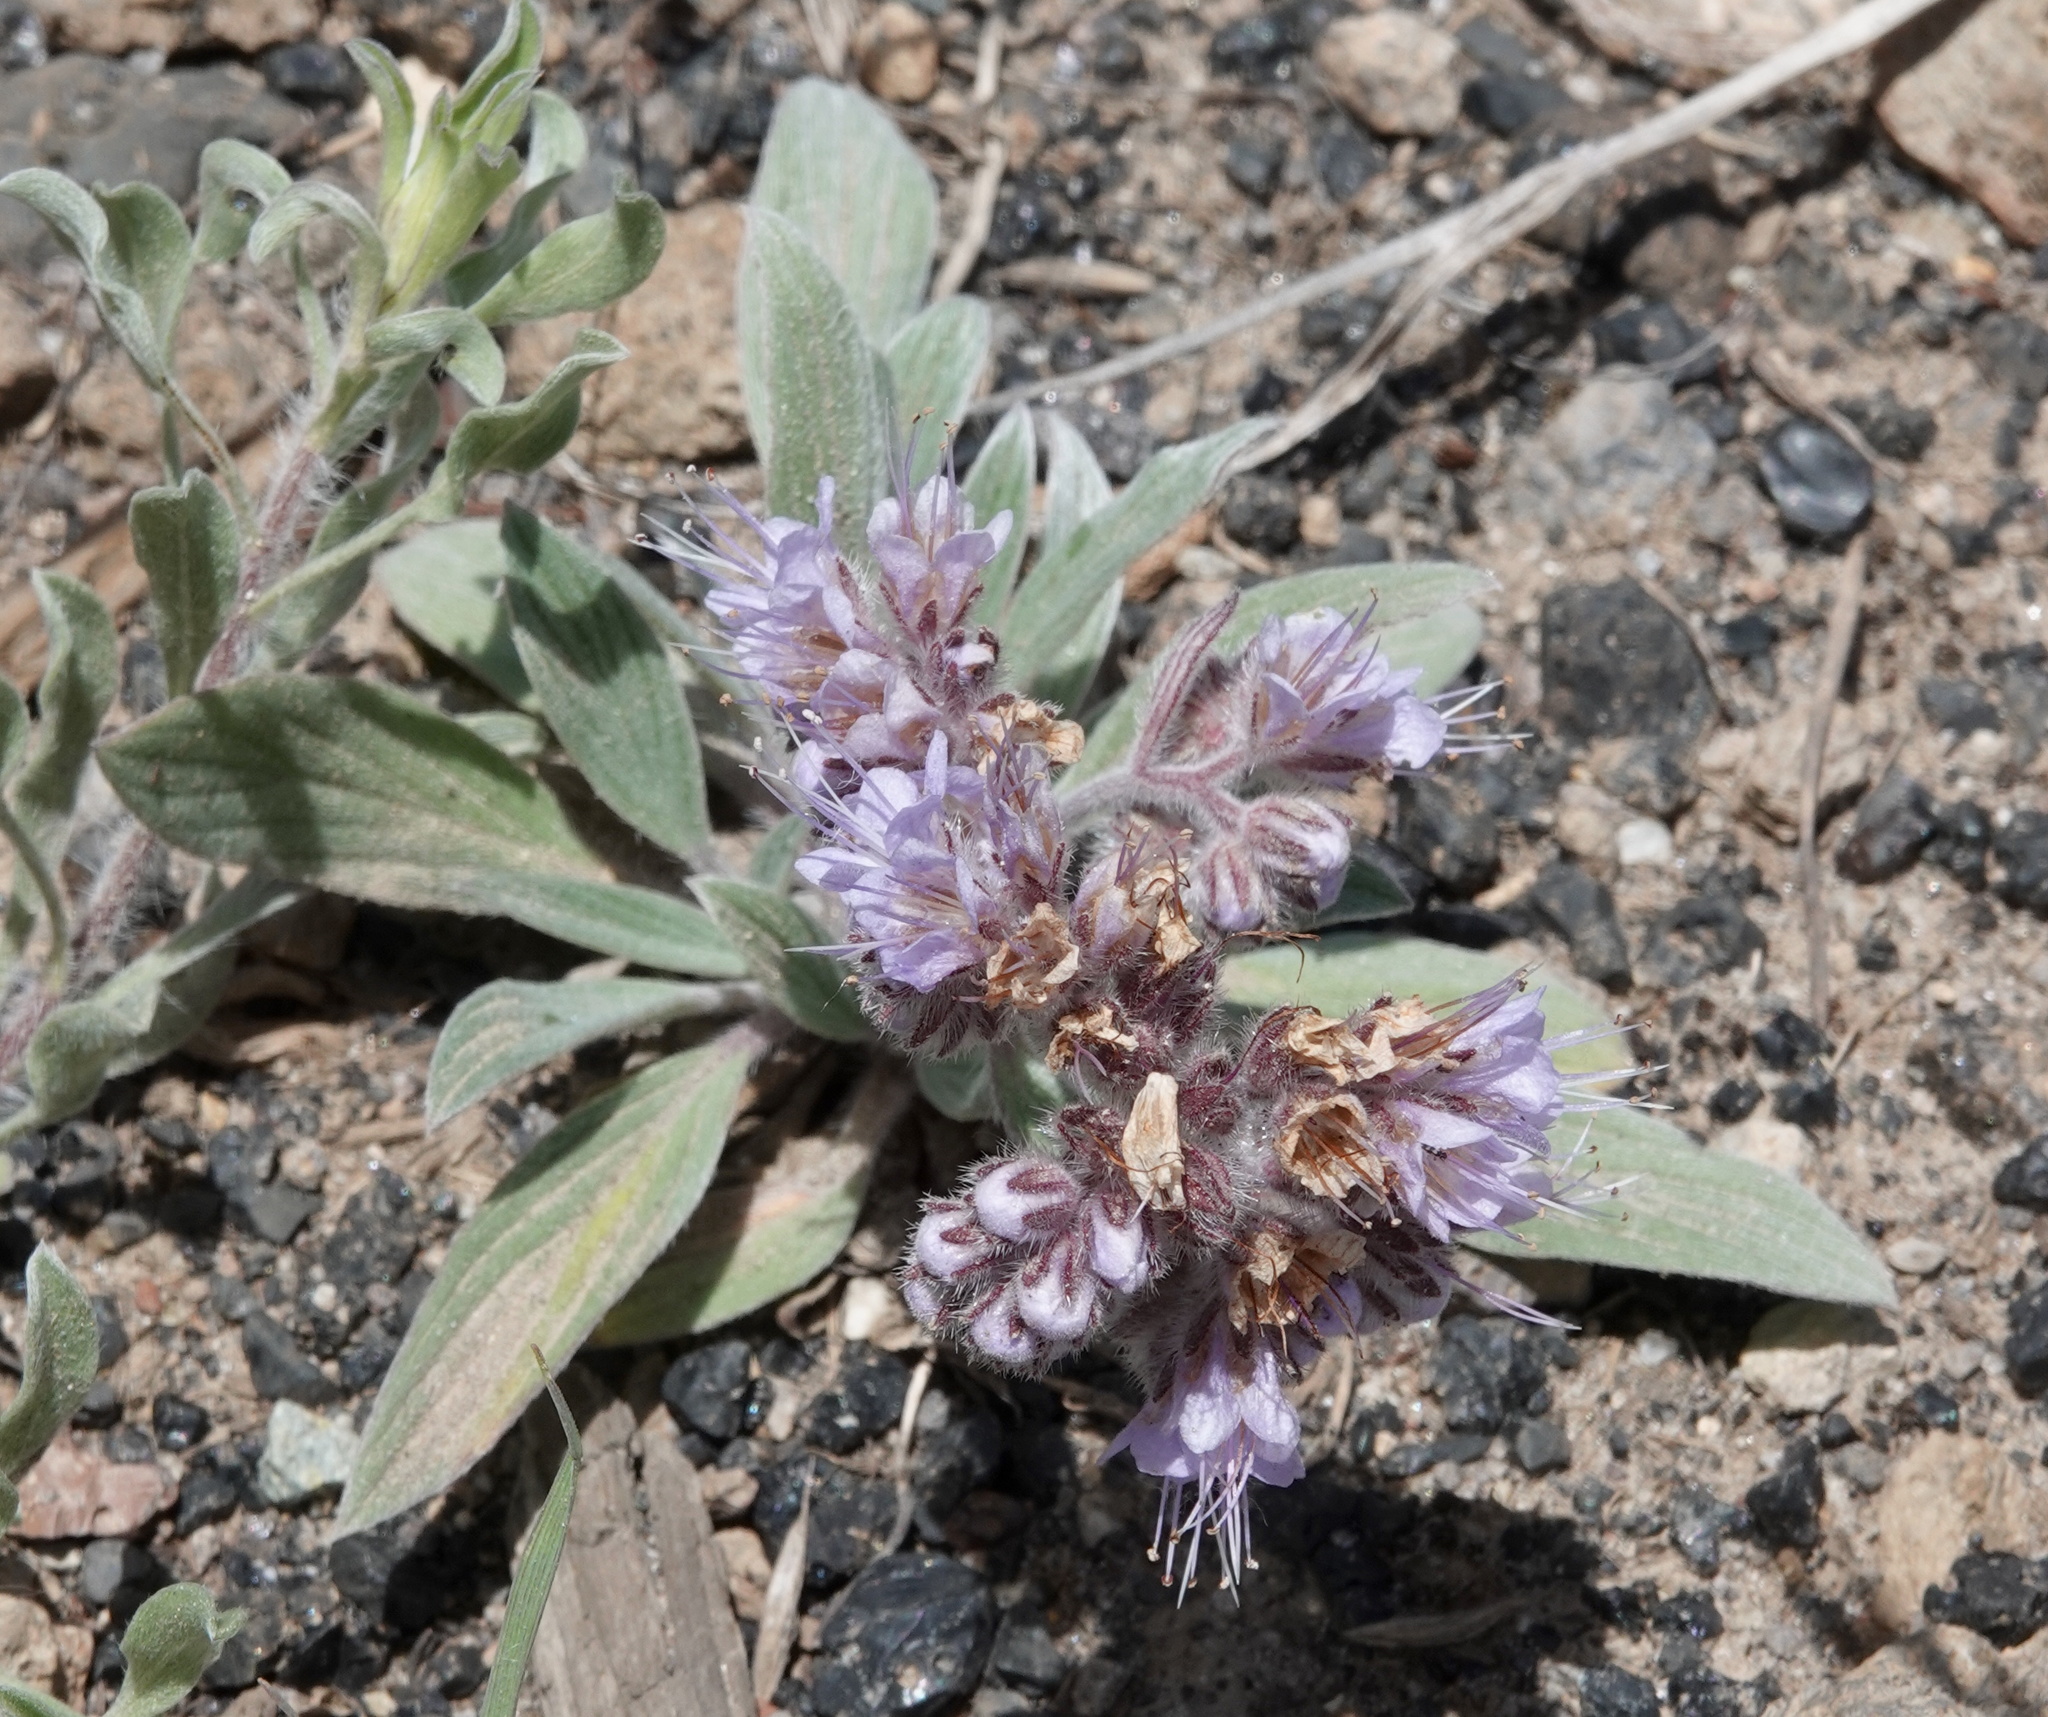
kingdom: Plantae
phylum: Tracheophyta
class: Magnoliopsida
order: Boraginales
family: Hydrophyllaceae
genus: Phacelia
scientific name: Phacelia hastata
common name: Silver-leaved phacelia
